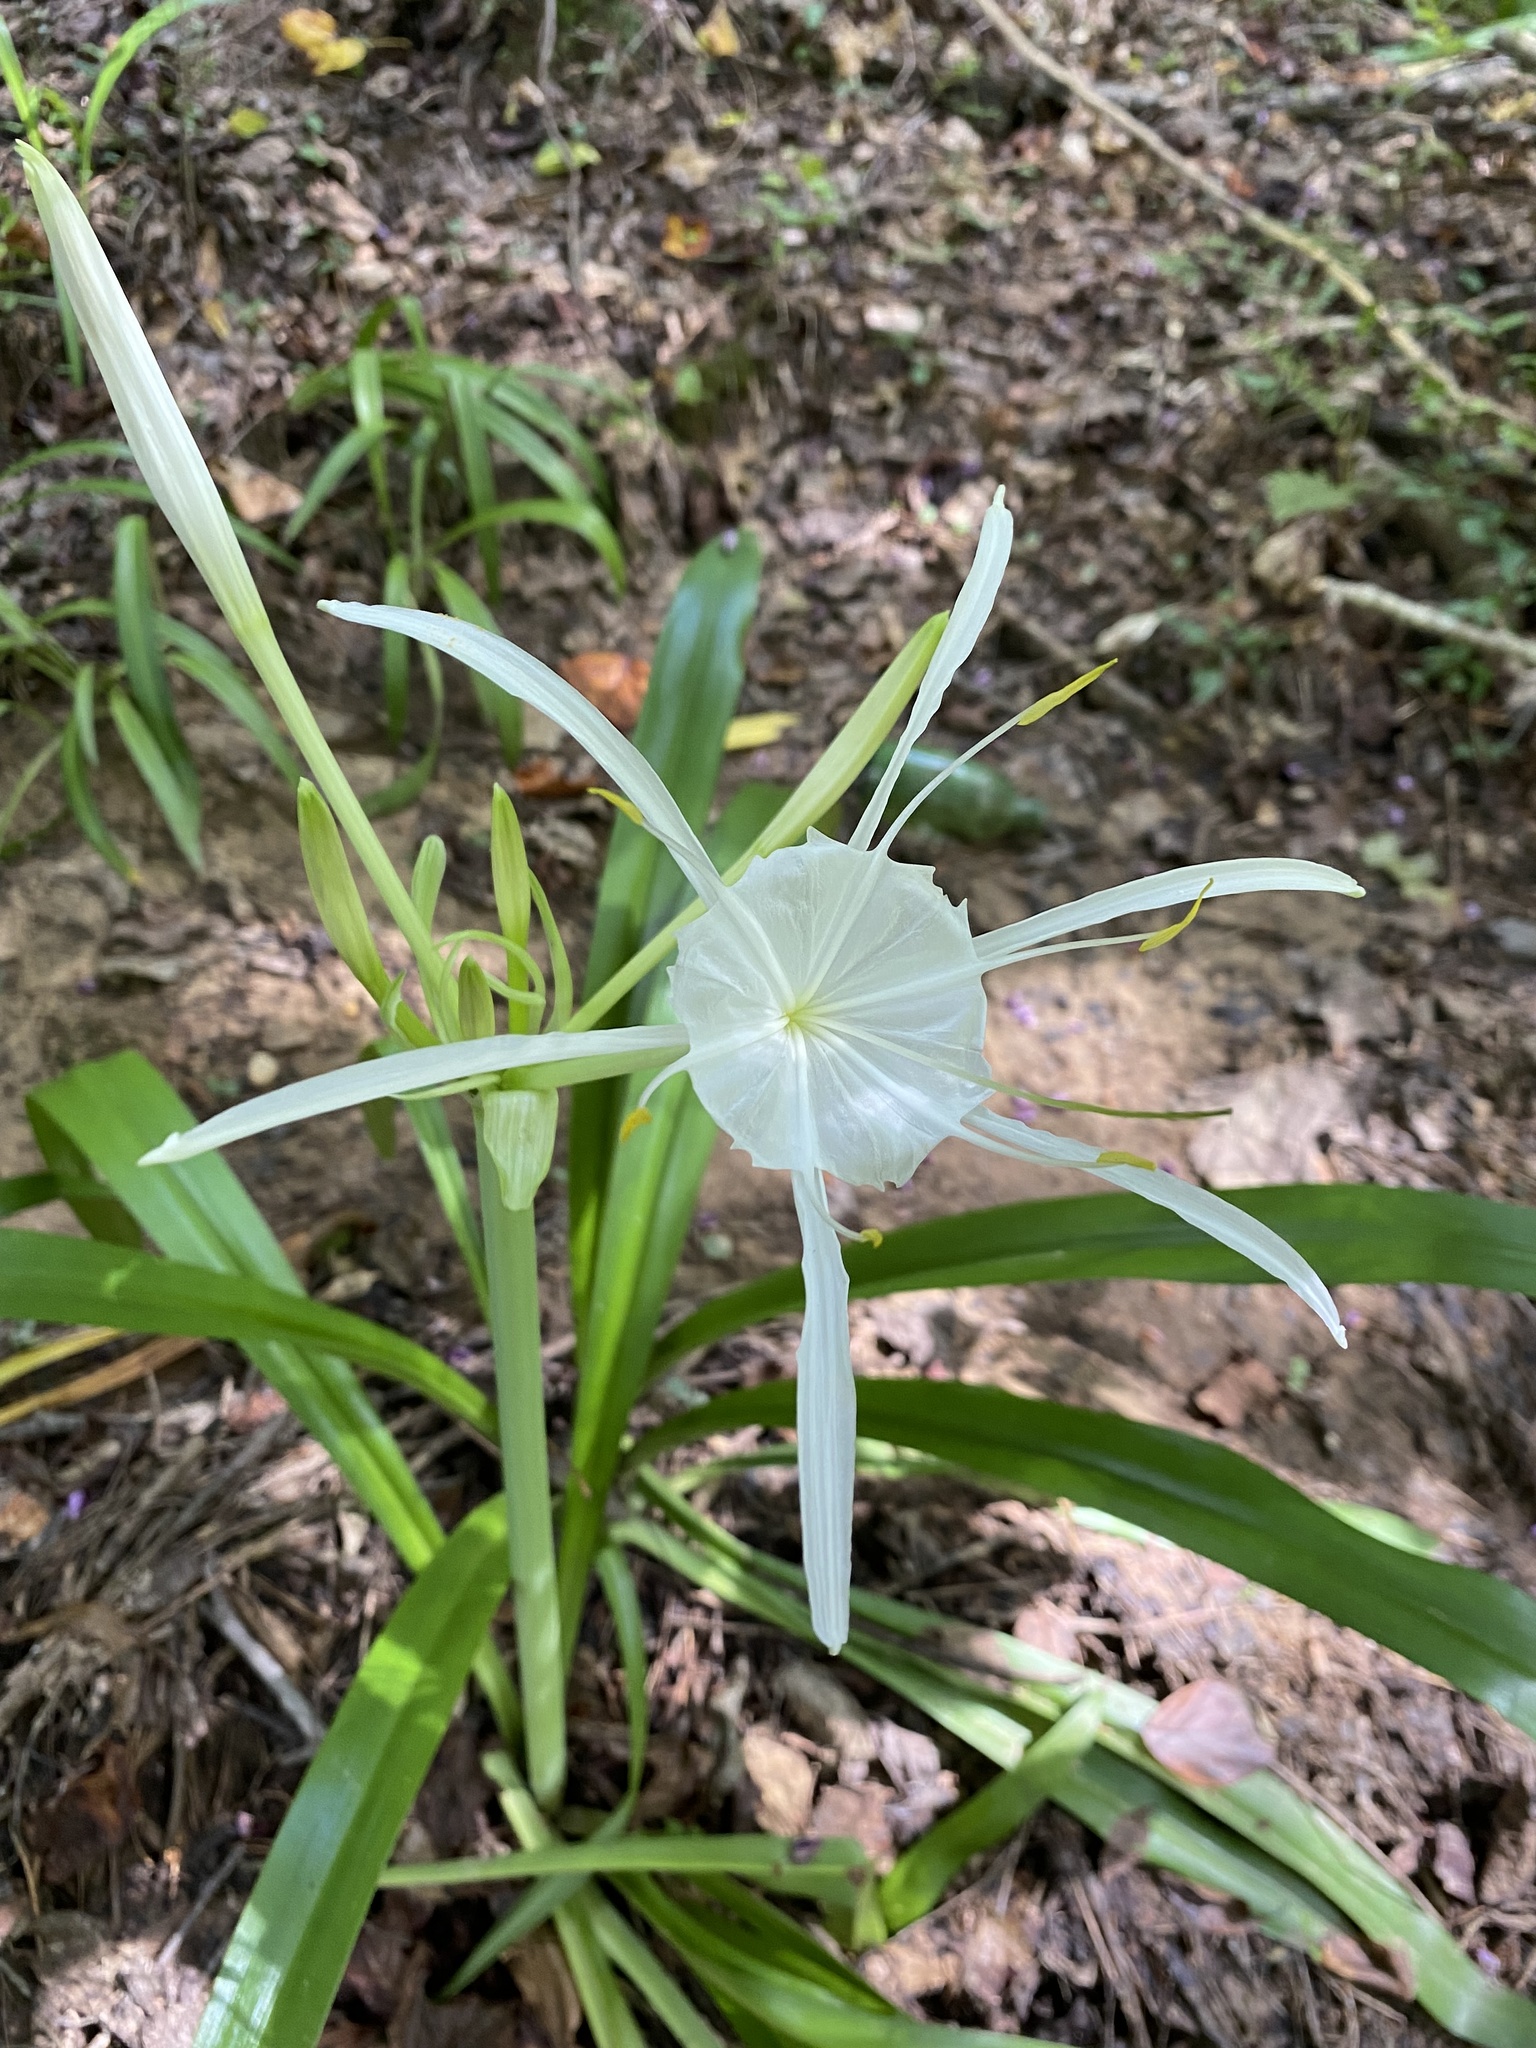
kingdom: Plantae
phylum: Tracheophyta
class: Liliopsida
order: Asparagales
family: Amaryllidaceae
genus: Hymenocallis
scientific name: Hymenocallis occidentalis
